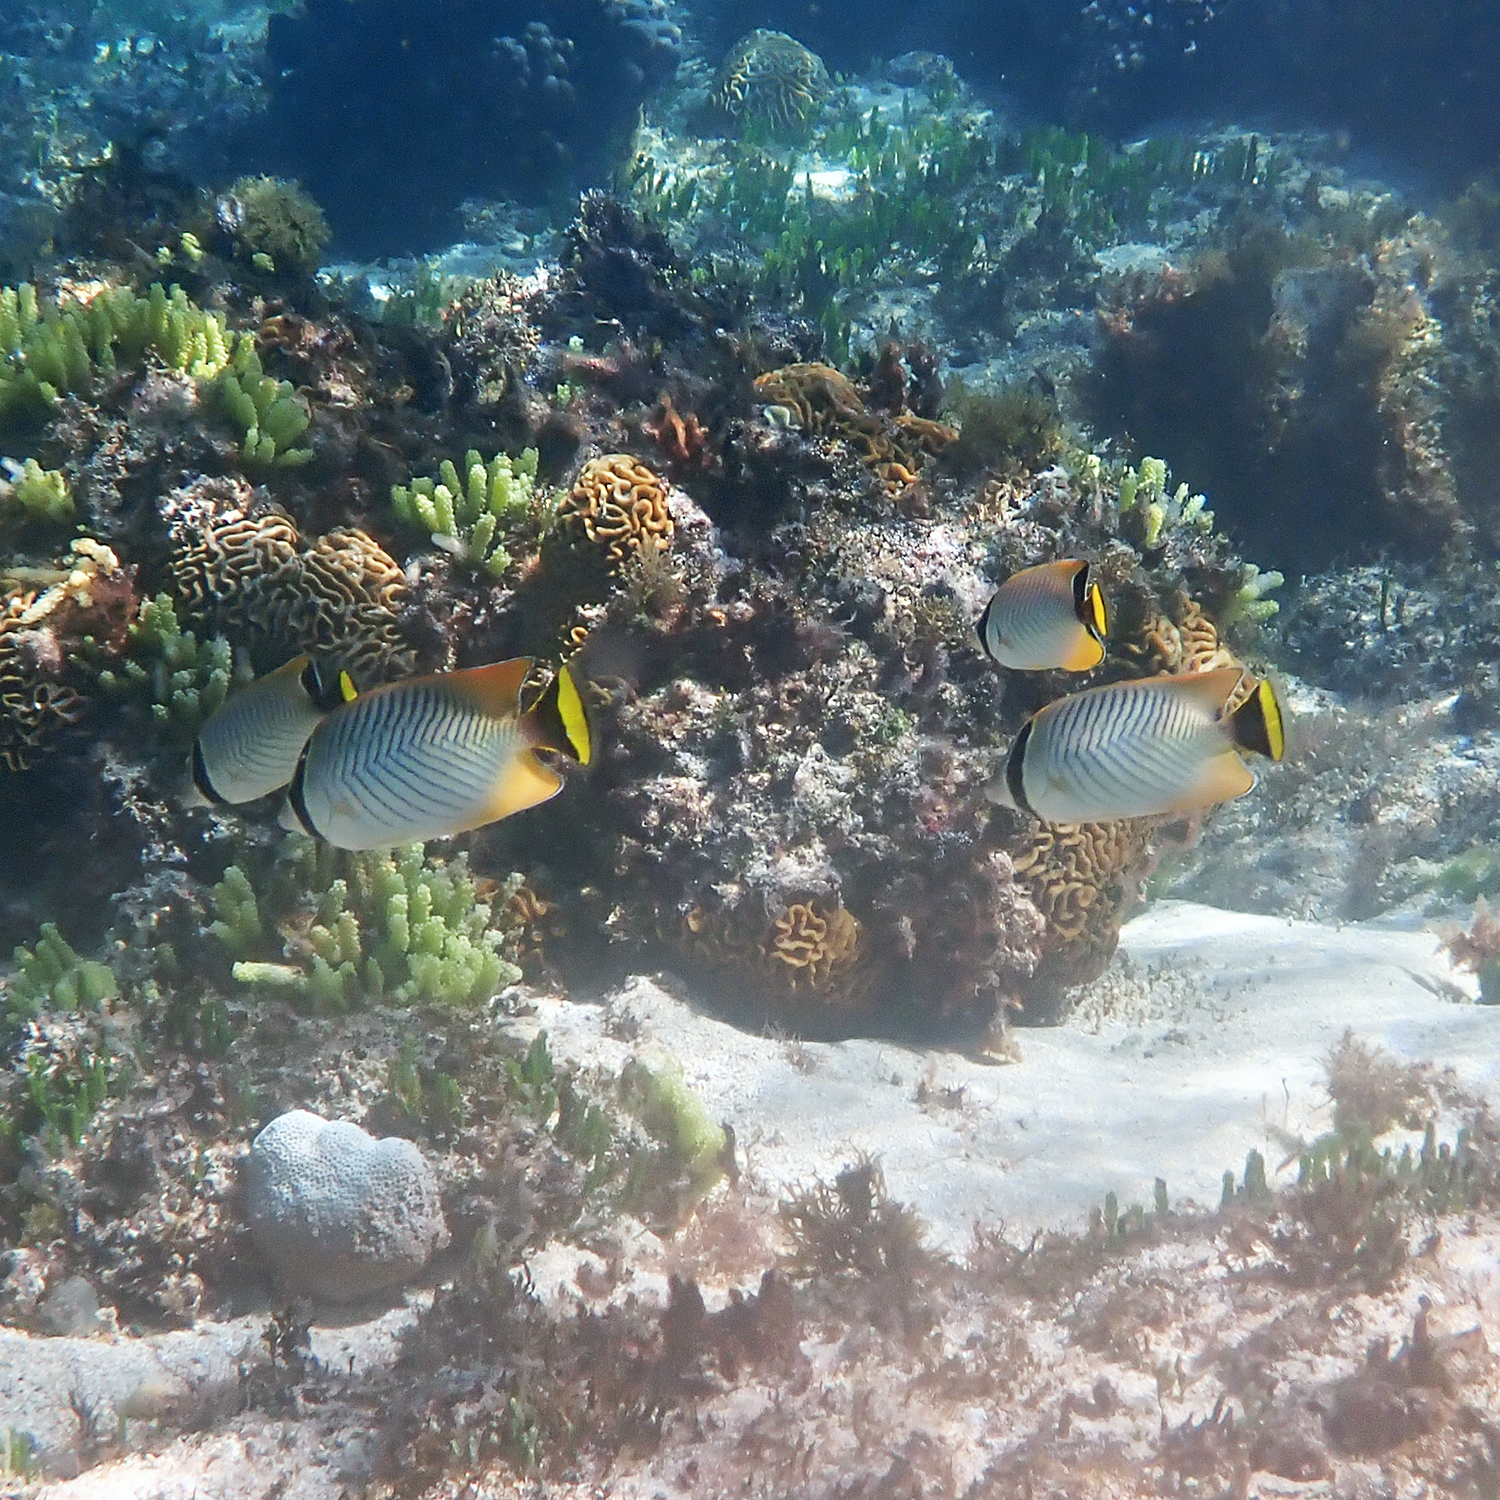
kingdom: Animalia
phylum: Chordata
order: Perciformes
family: Chaetodontidae
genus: Chaetodon
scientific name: Chaetodon trifascialis
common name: Chevroned butterflyfish
